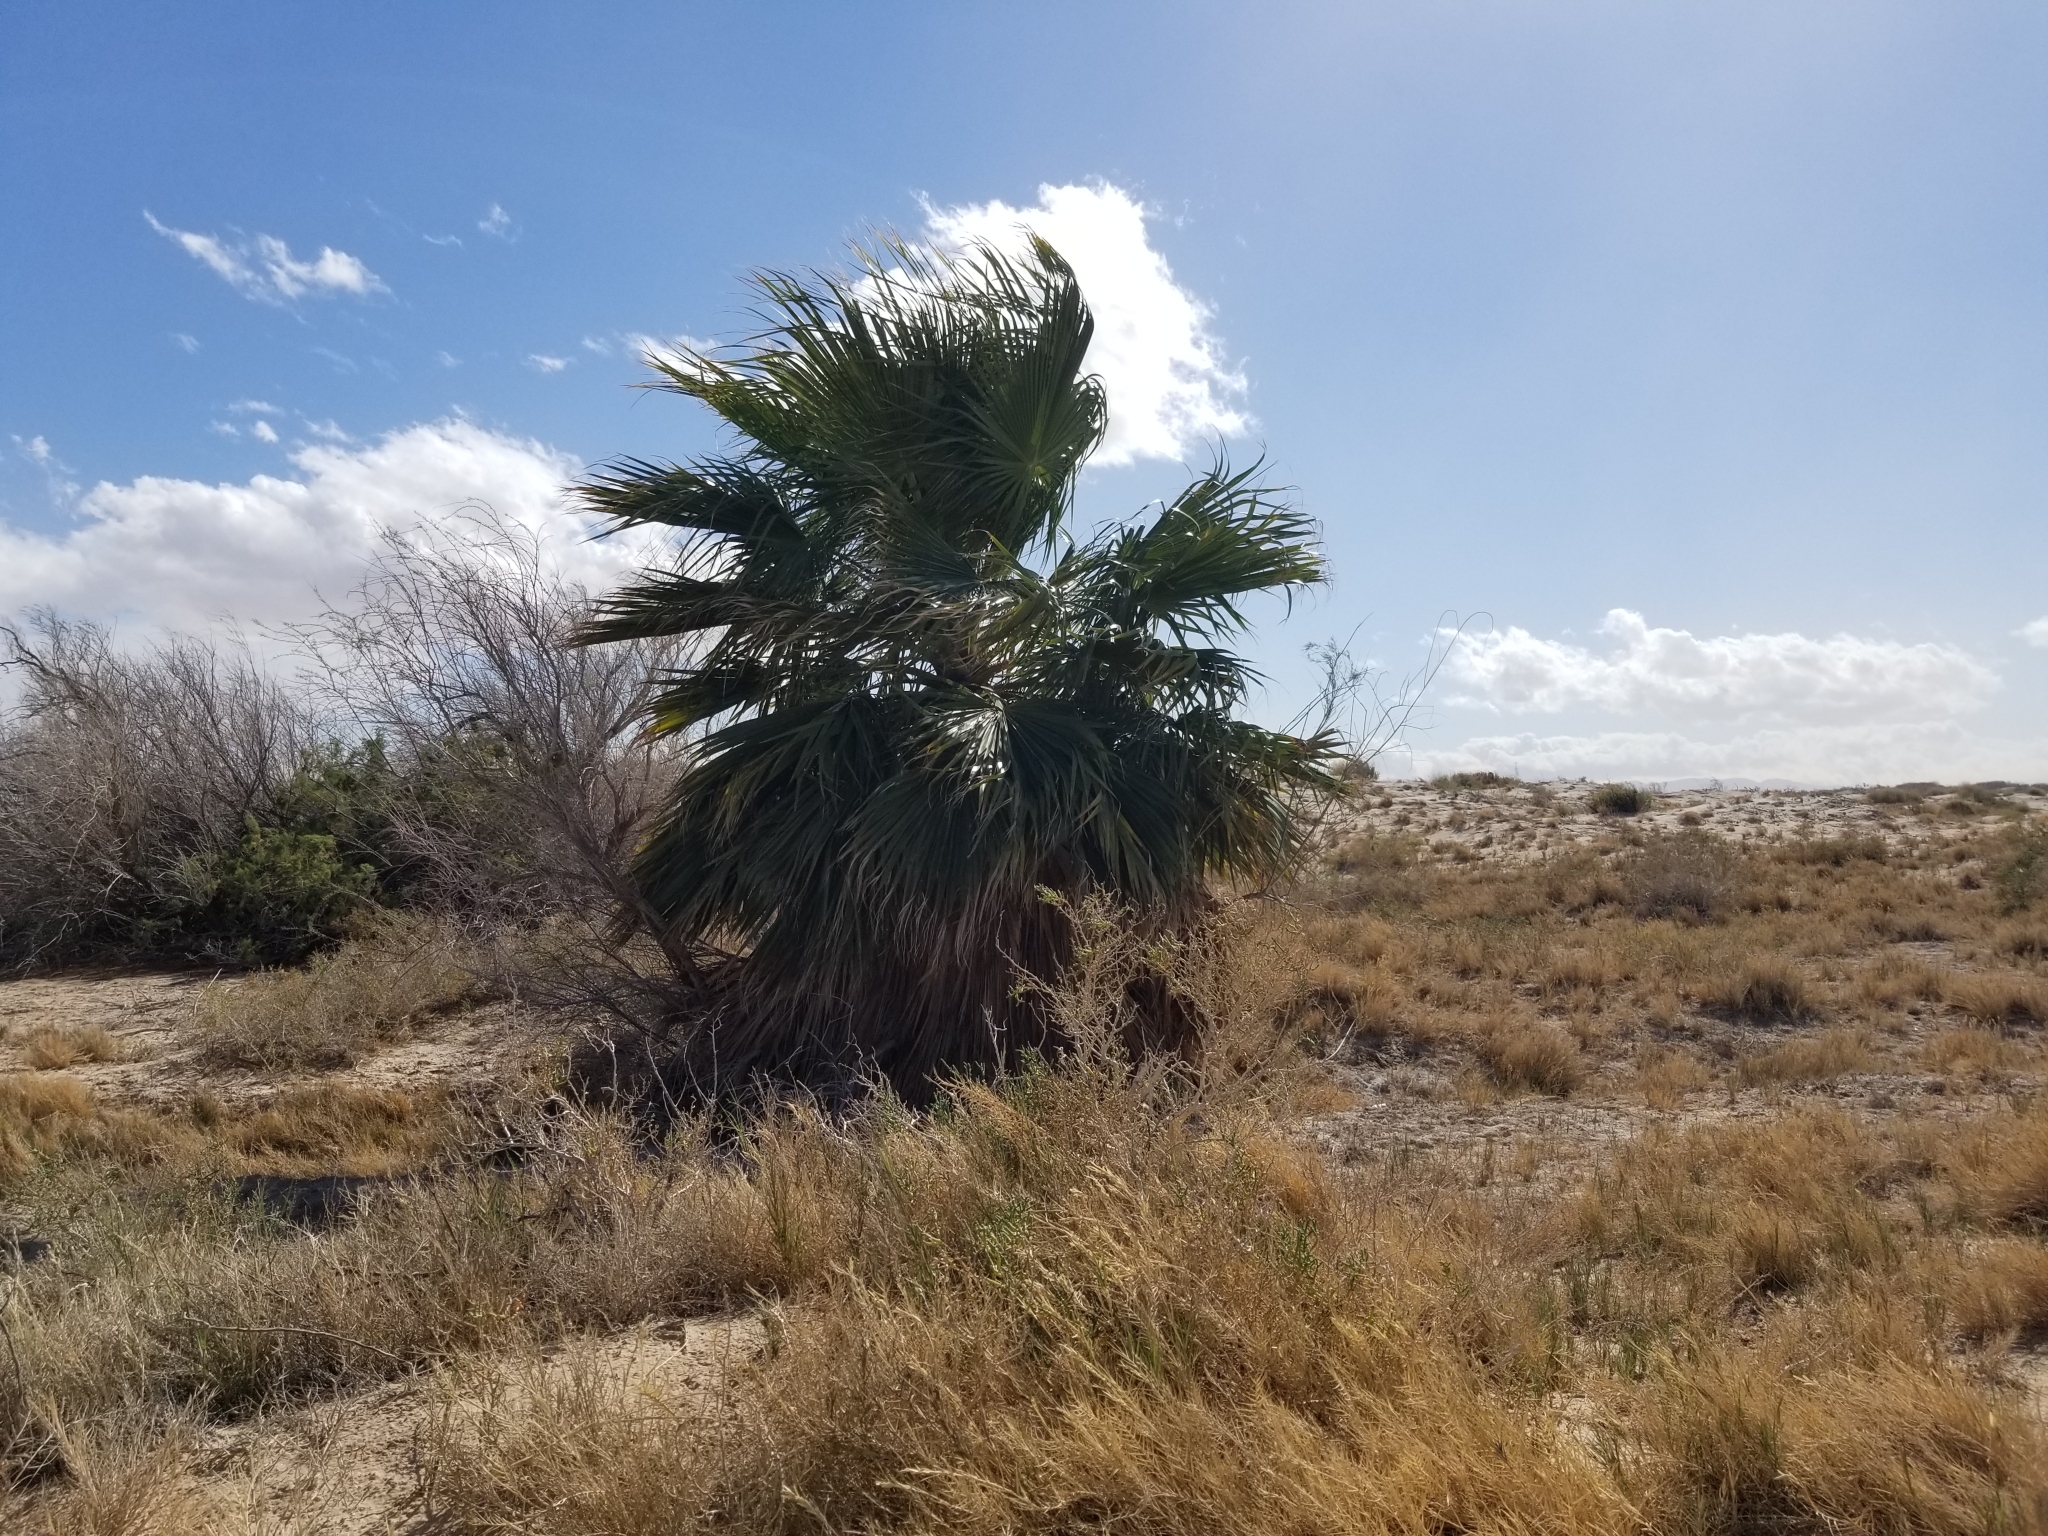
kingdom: Plantae
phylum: Tracheophyta
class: Liliopsida
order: Arecales
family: Arecaceae
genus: Washingtonia
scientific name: Washingtonia filifera
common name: California fan palm
